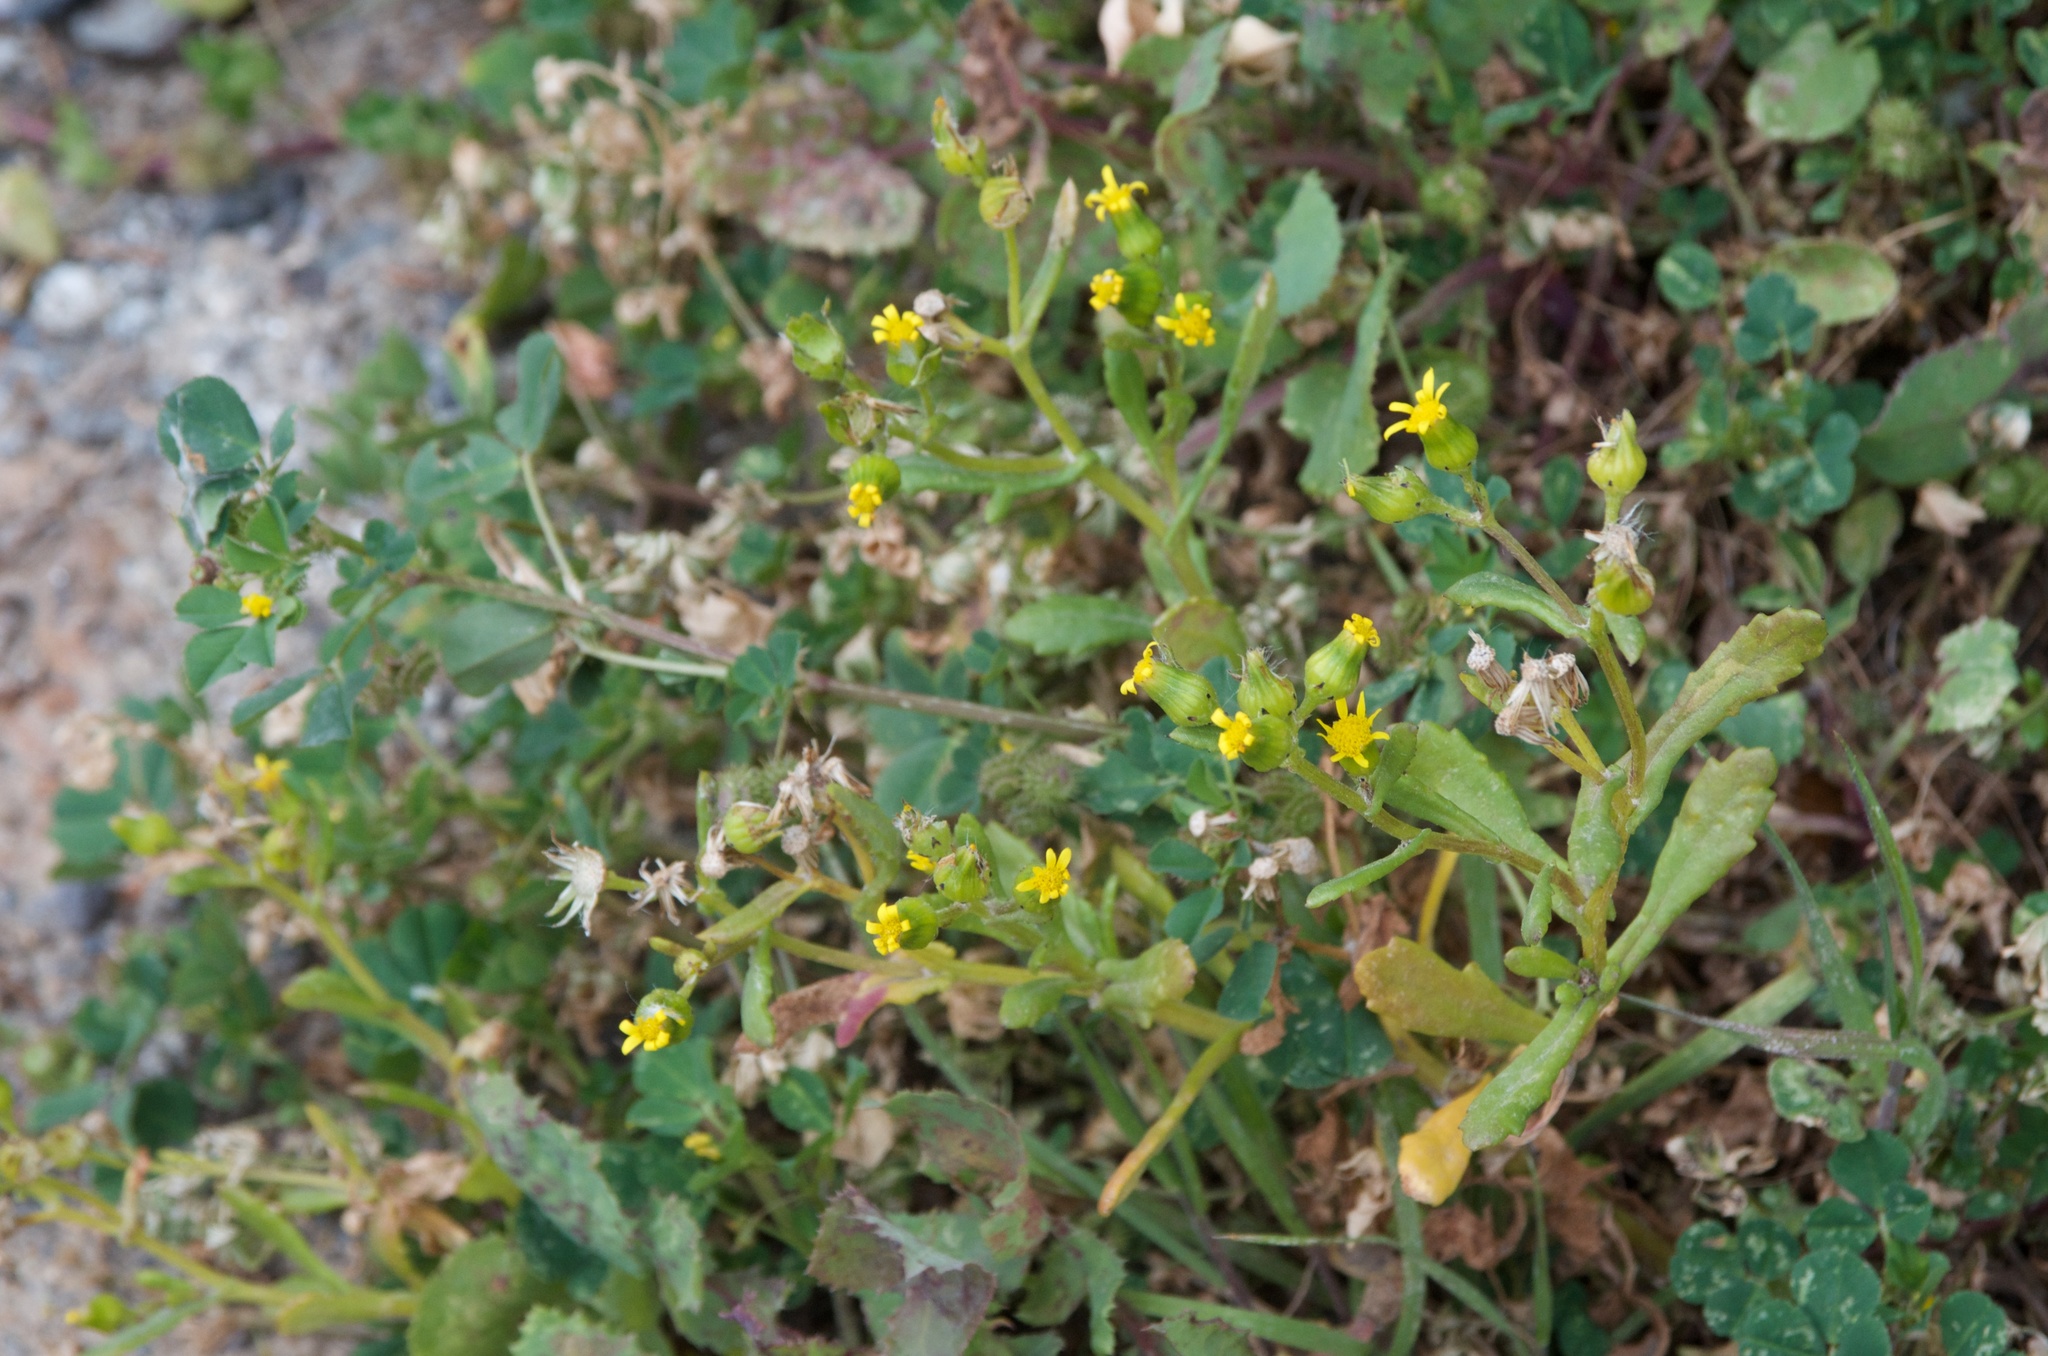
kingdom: Plantae
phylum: Tracheophyta
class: Magnoliopsida
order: Asterales
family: Asteraceae
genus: Senecio
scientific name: Senecio lautus
